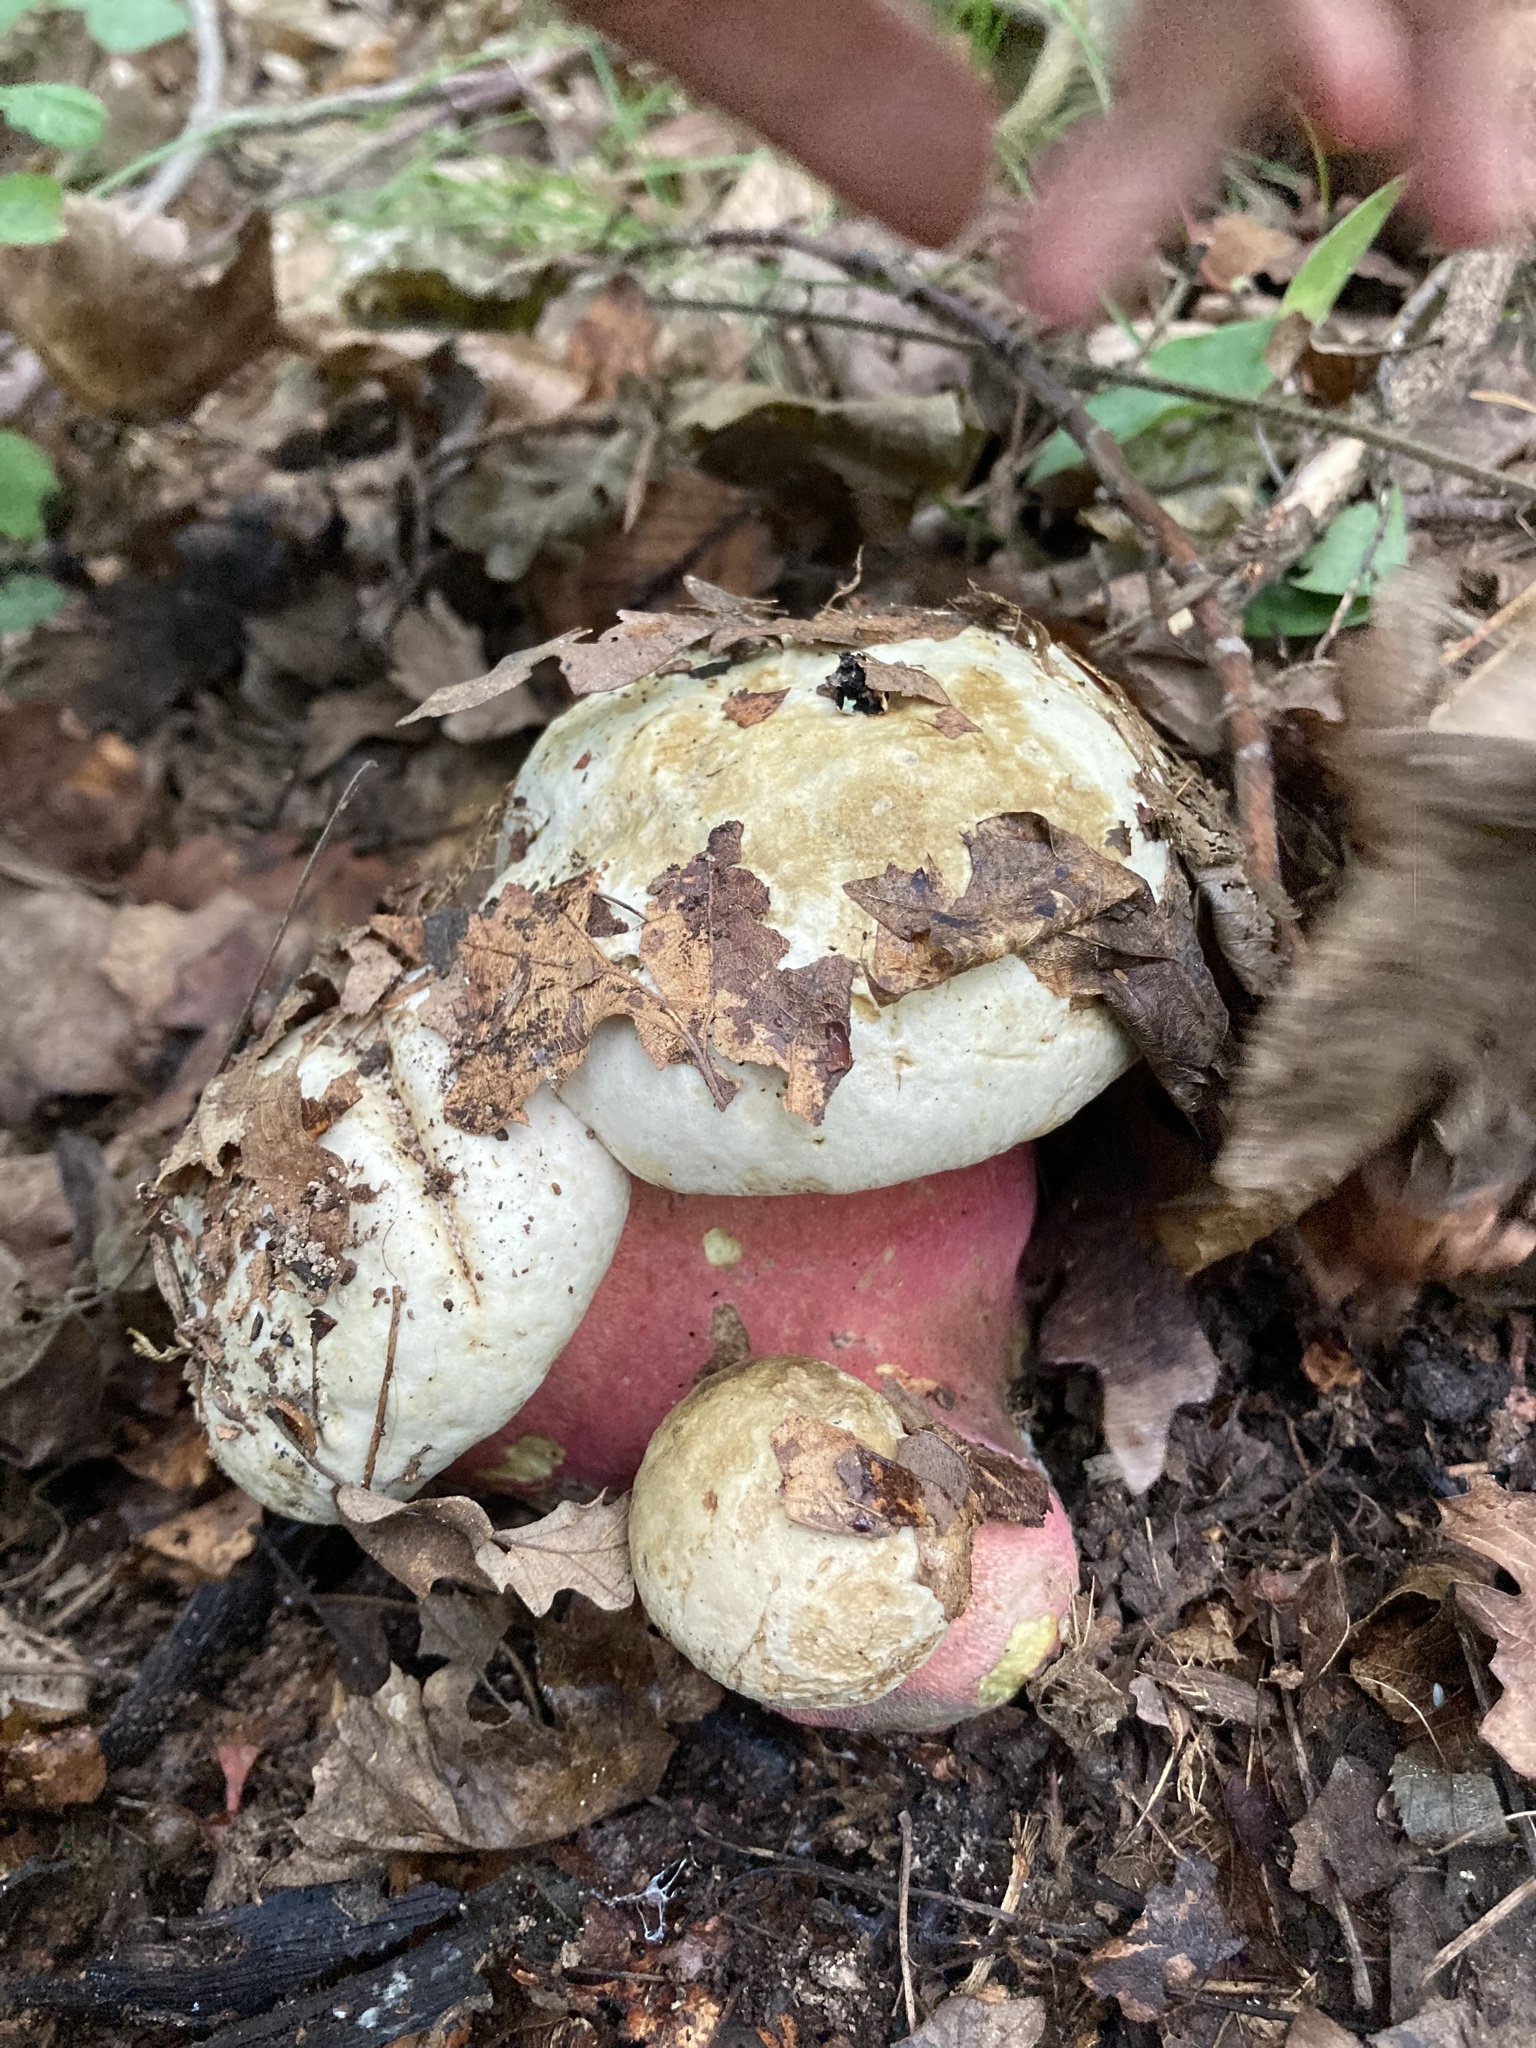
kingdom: Fungi
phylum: Basidiomycota
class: Agaricomycetes
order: Boletales
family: Boletaceae
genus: Rubroboletus
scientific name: Rubroboletus satanas
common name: Devil's bolete
